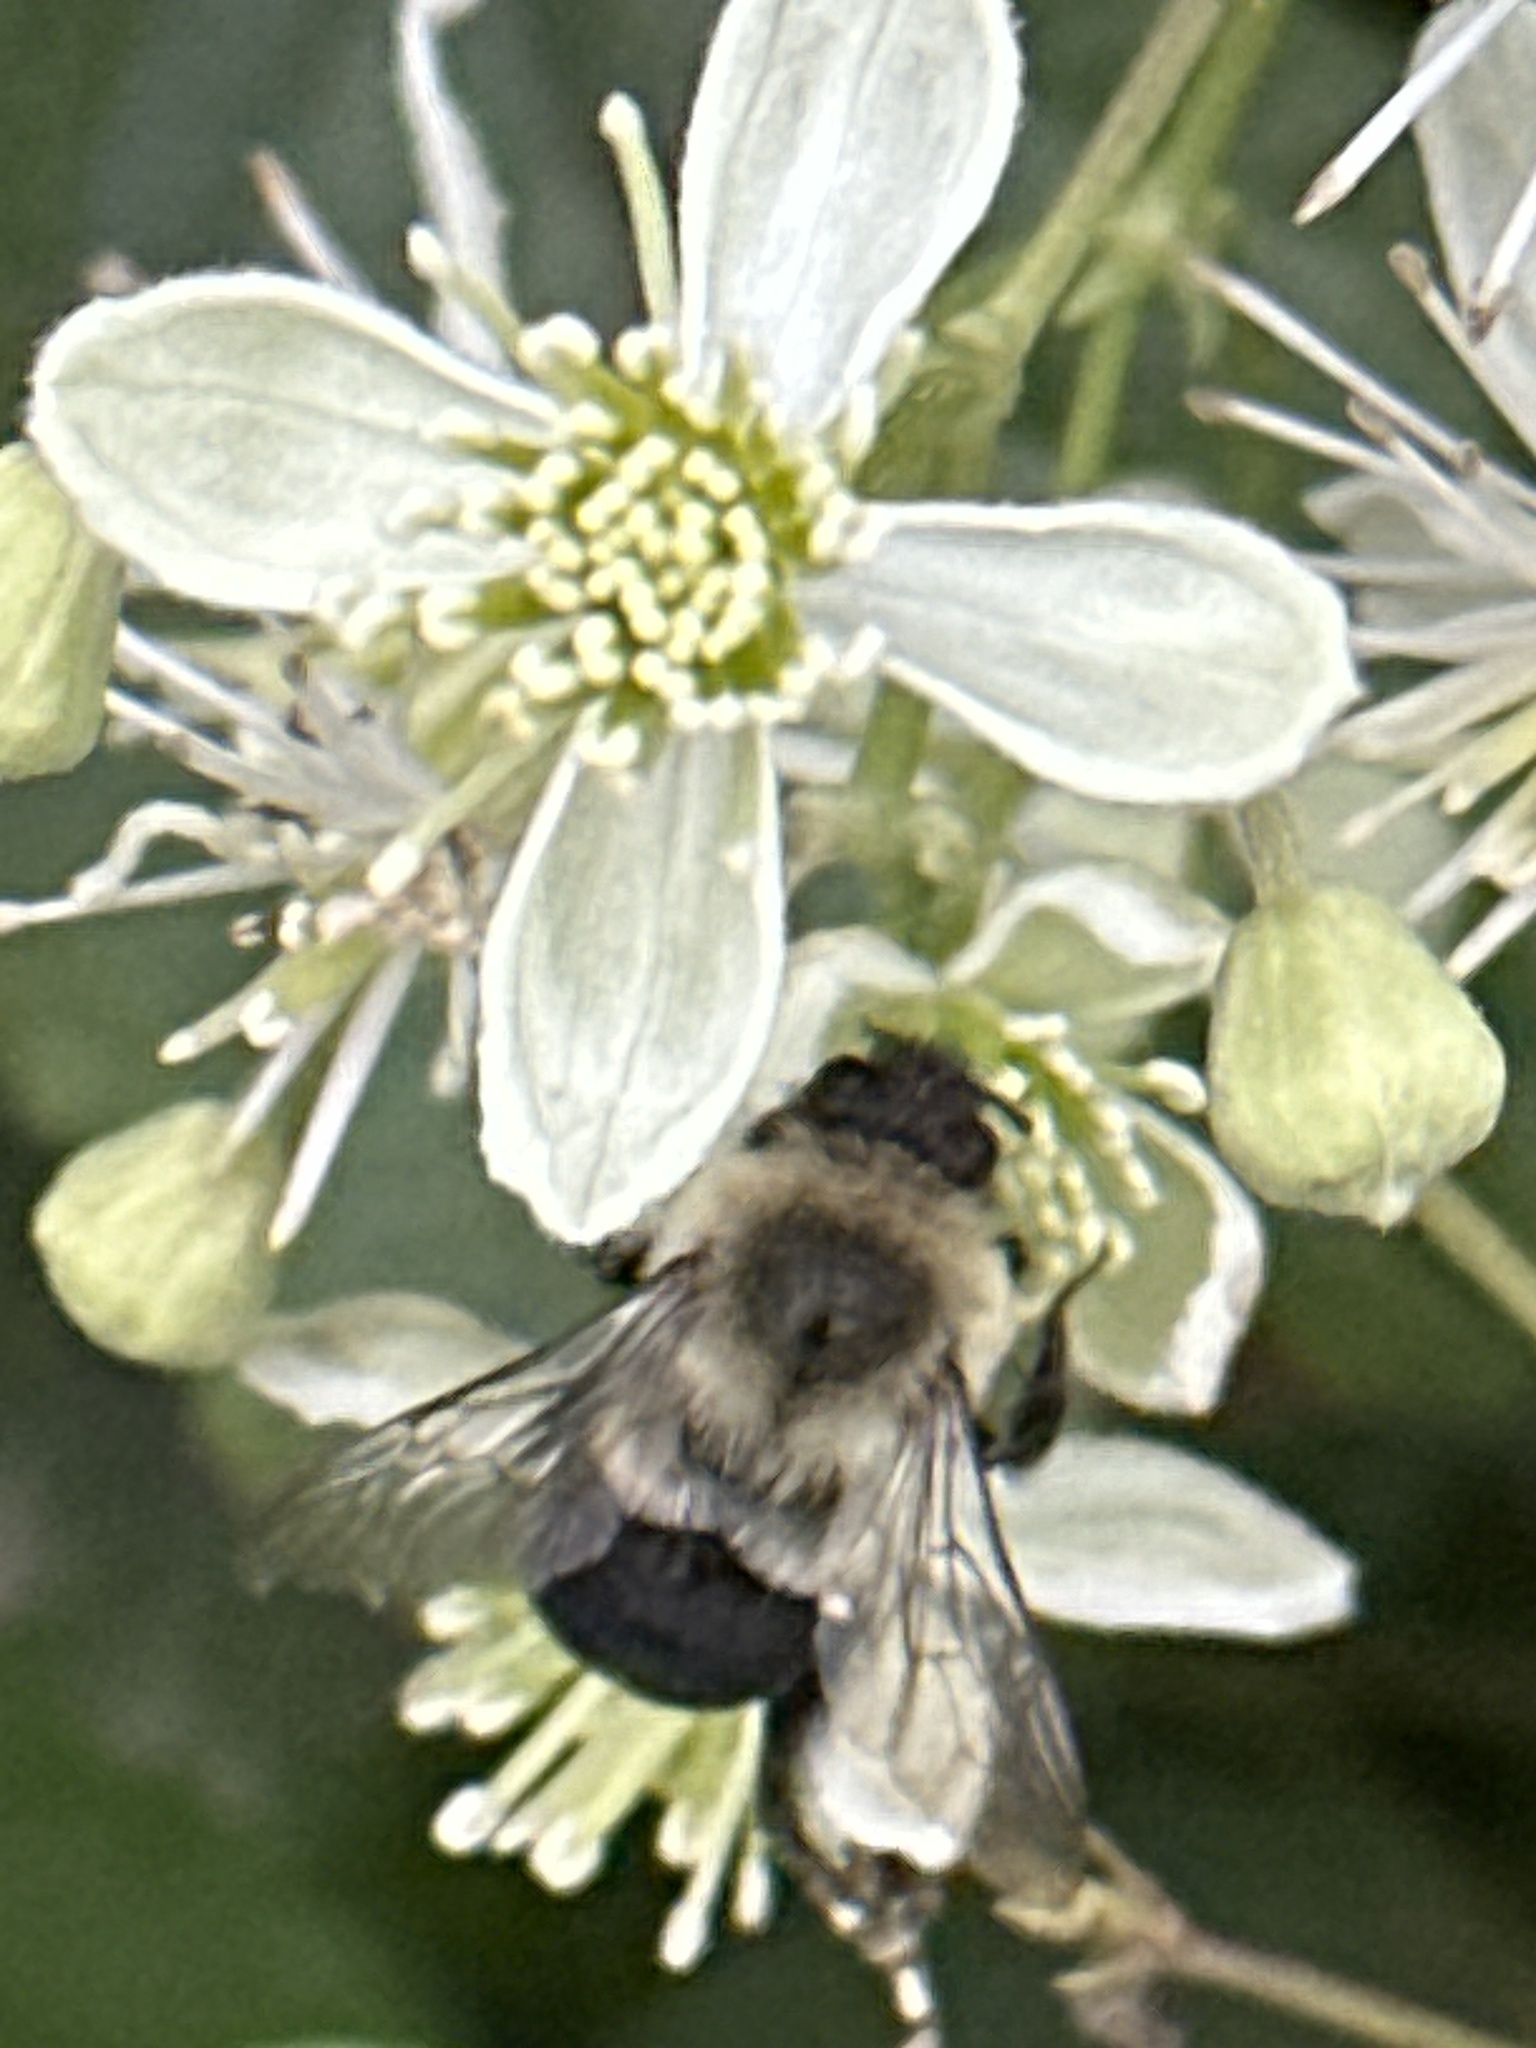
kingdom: Animalia
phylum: Arthropoda
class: Insecta
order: Hymenoptera
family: Apidae
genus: Bombus
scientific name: Bombus impatiens
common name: Common eastern bumble bee
